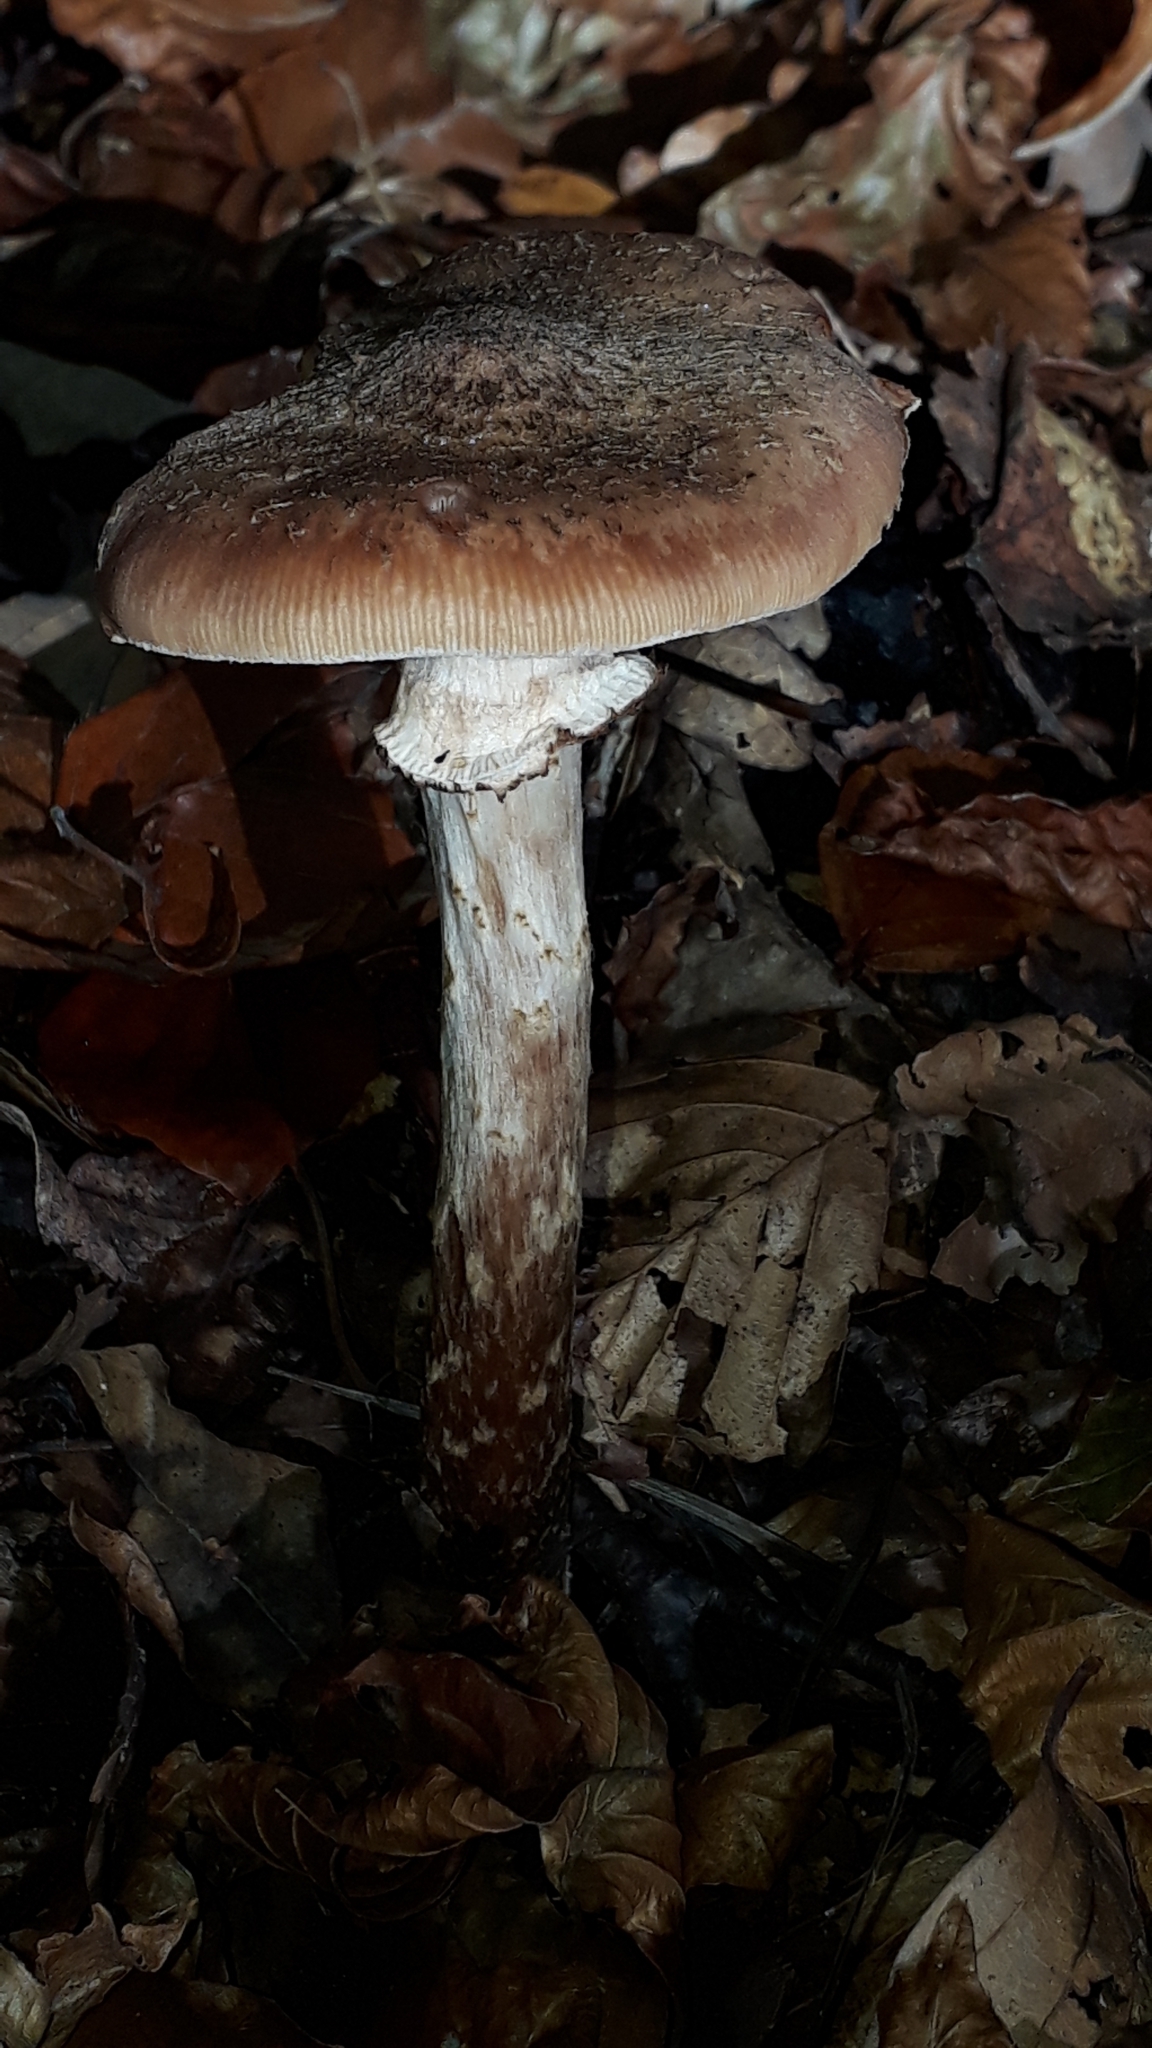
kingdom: Fungi
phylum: Basidiomycota
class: Agaricomycetes
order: Agaricales
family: Physalacriaceae
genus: Armillaria
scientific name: Armillaria ostoyae
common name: Dark honey fungus
